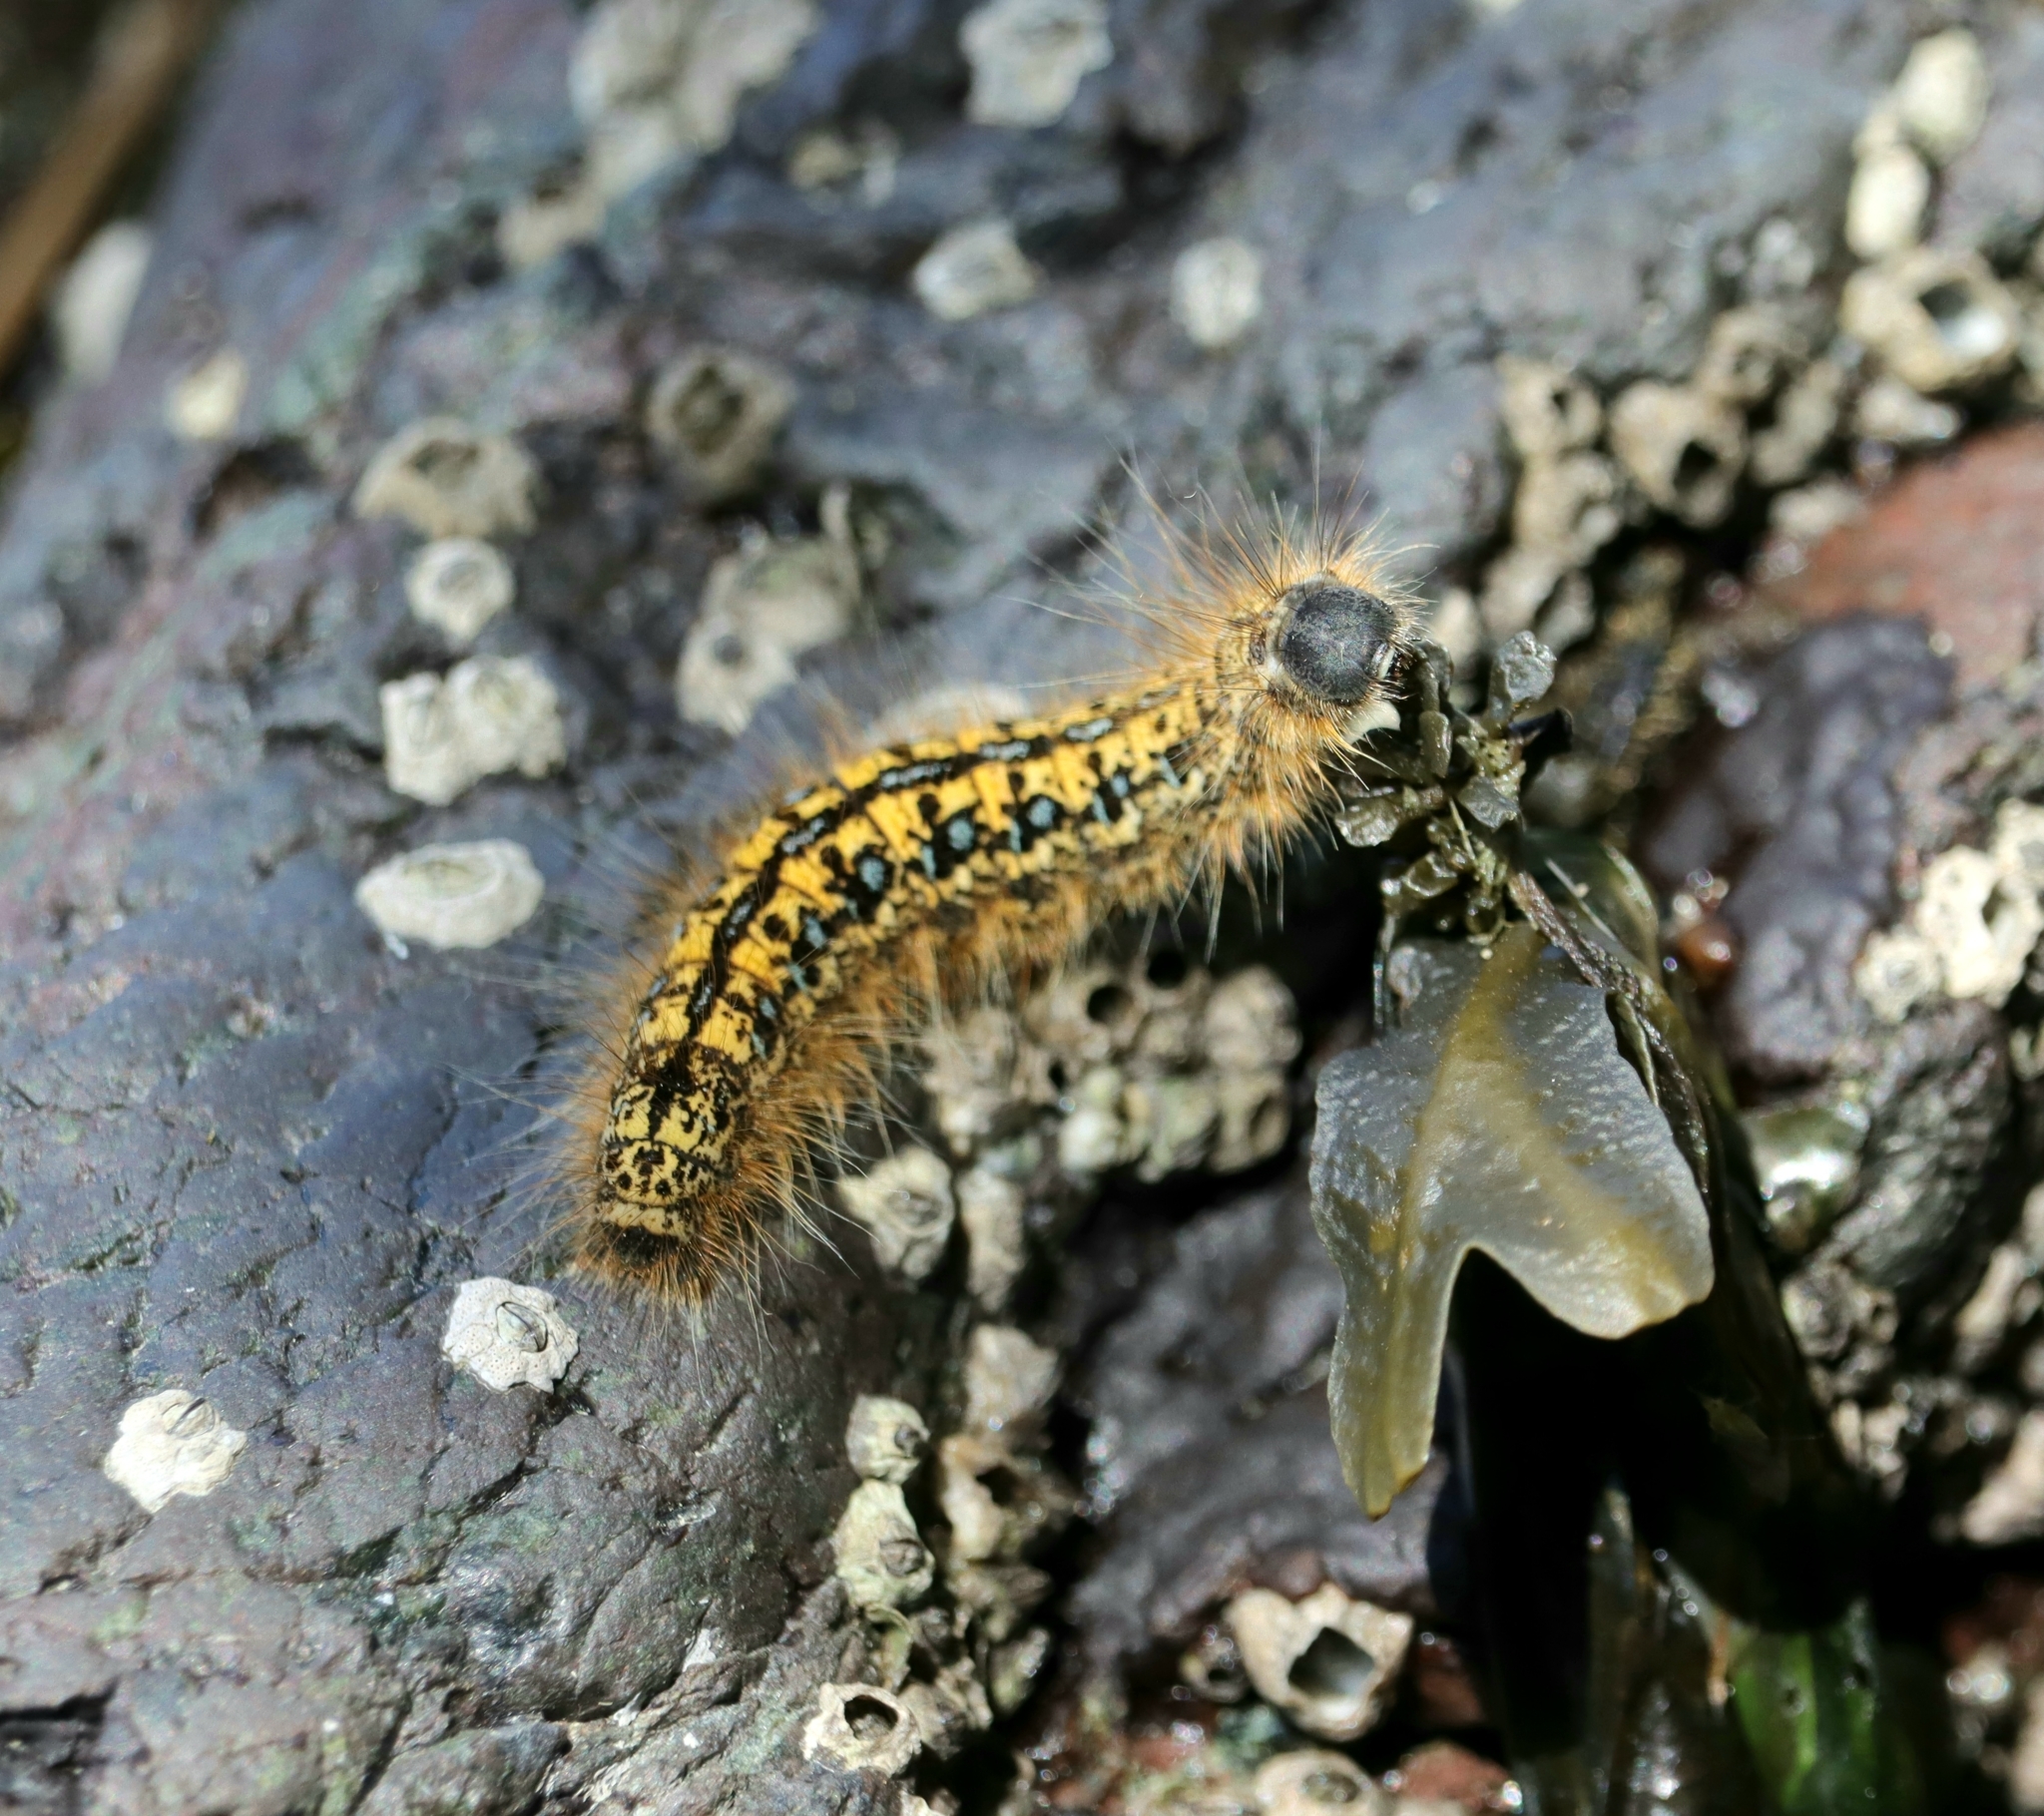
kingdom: Animalia
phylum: Arthropoda
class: Insecta
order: Lepidoptera
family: Lasiocampidae
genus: Malacosoma
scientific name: Malacosoma californica
